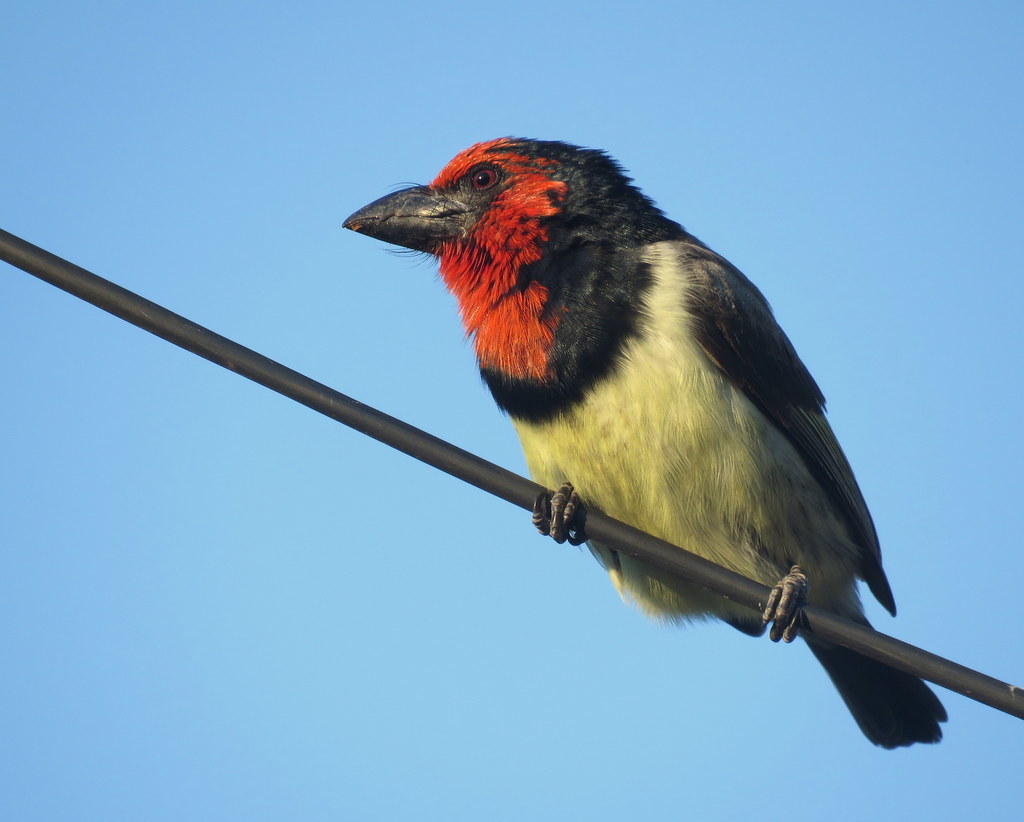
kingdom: Animalia
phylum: Chordata
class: Aves
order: Piciformes
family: Lybiidae
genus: Lybius
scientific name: Lybius torquatus
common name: Black-collared barbet
